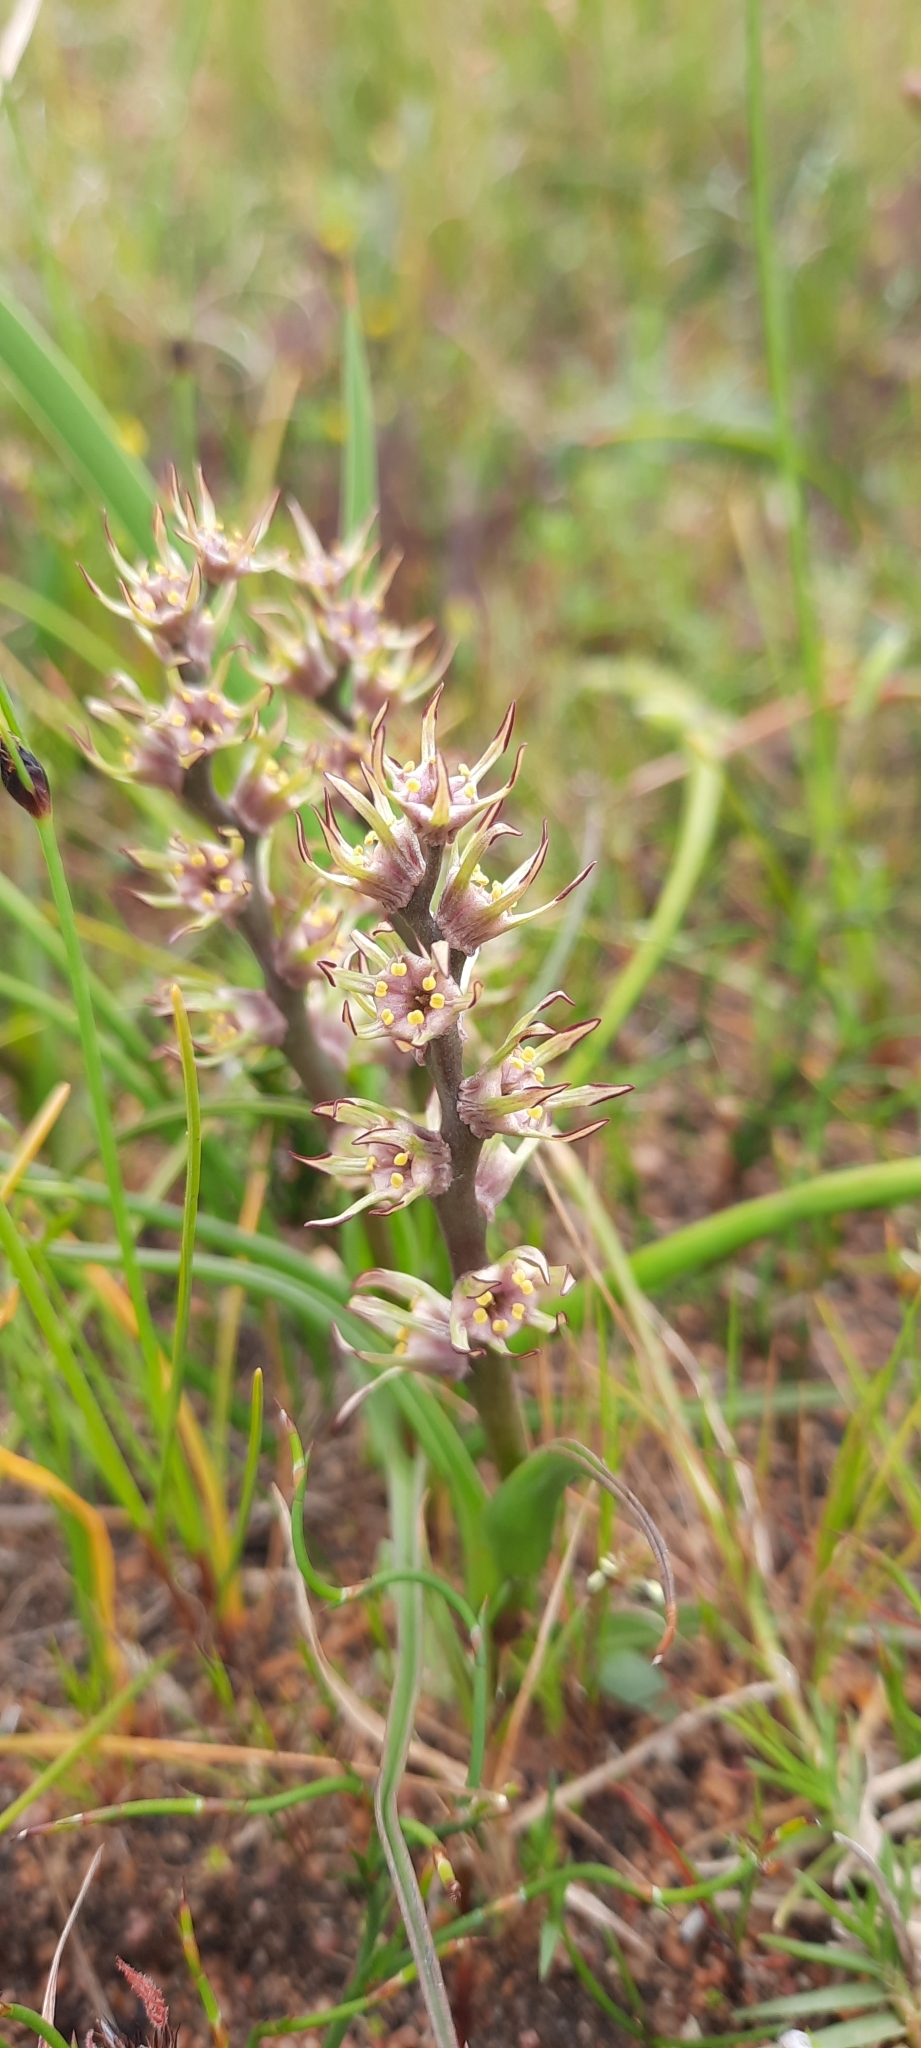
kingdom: Plantae
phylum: Tracheophyta
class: Liliopsida
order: Liliales
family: Colchicaceae
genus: Wurmbea
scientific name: Wurmbea monopetala
